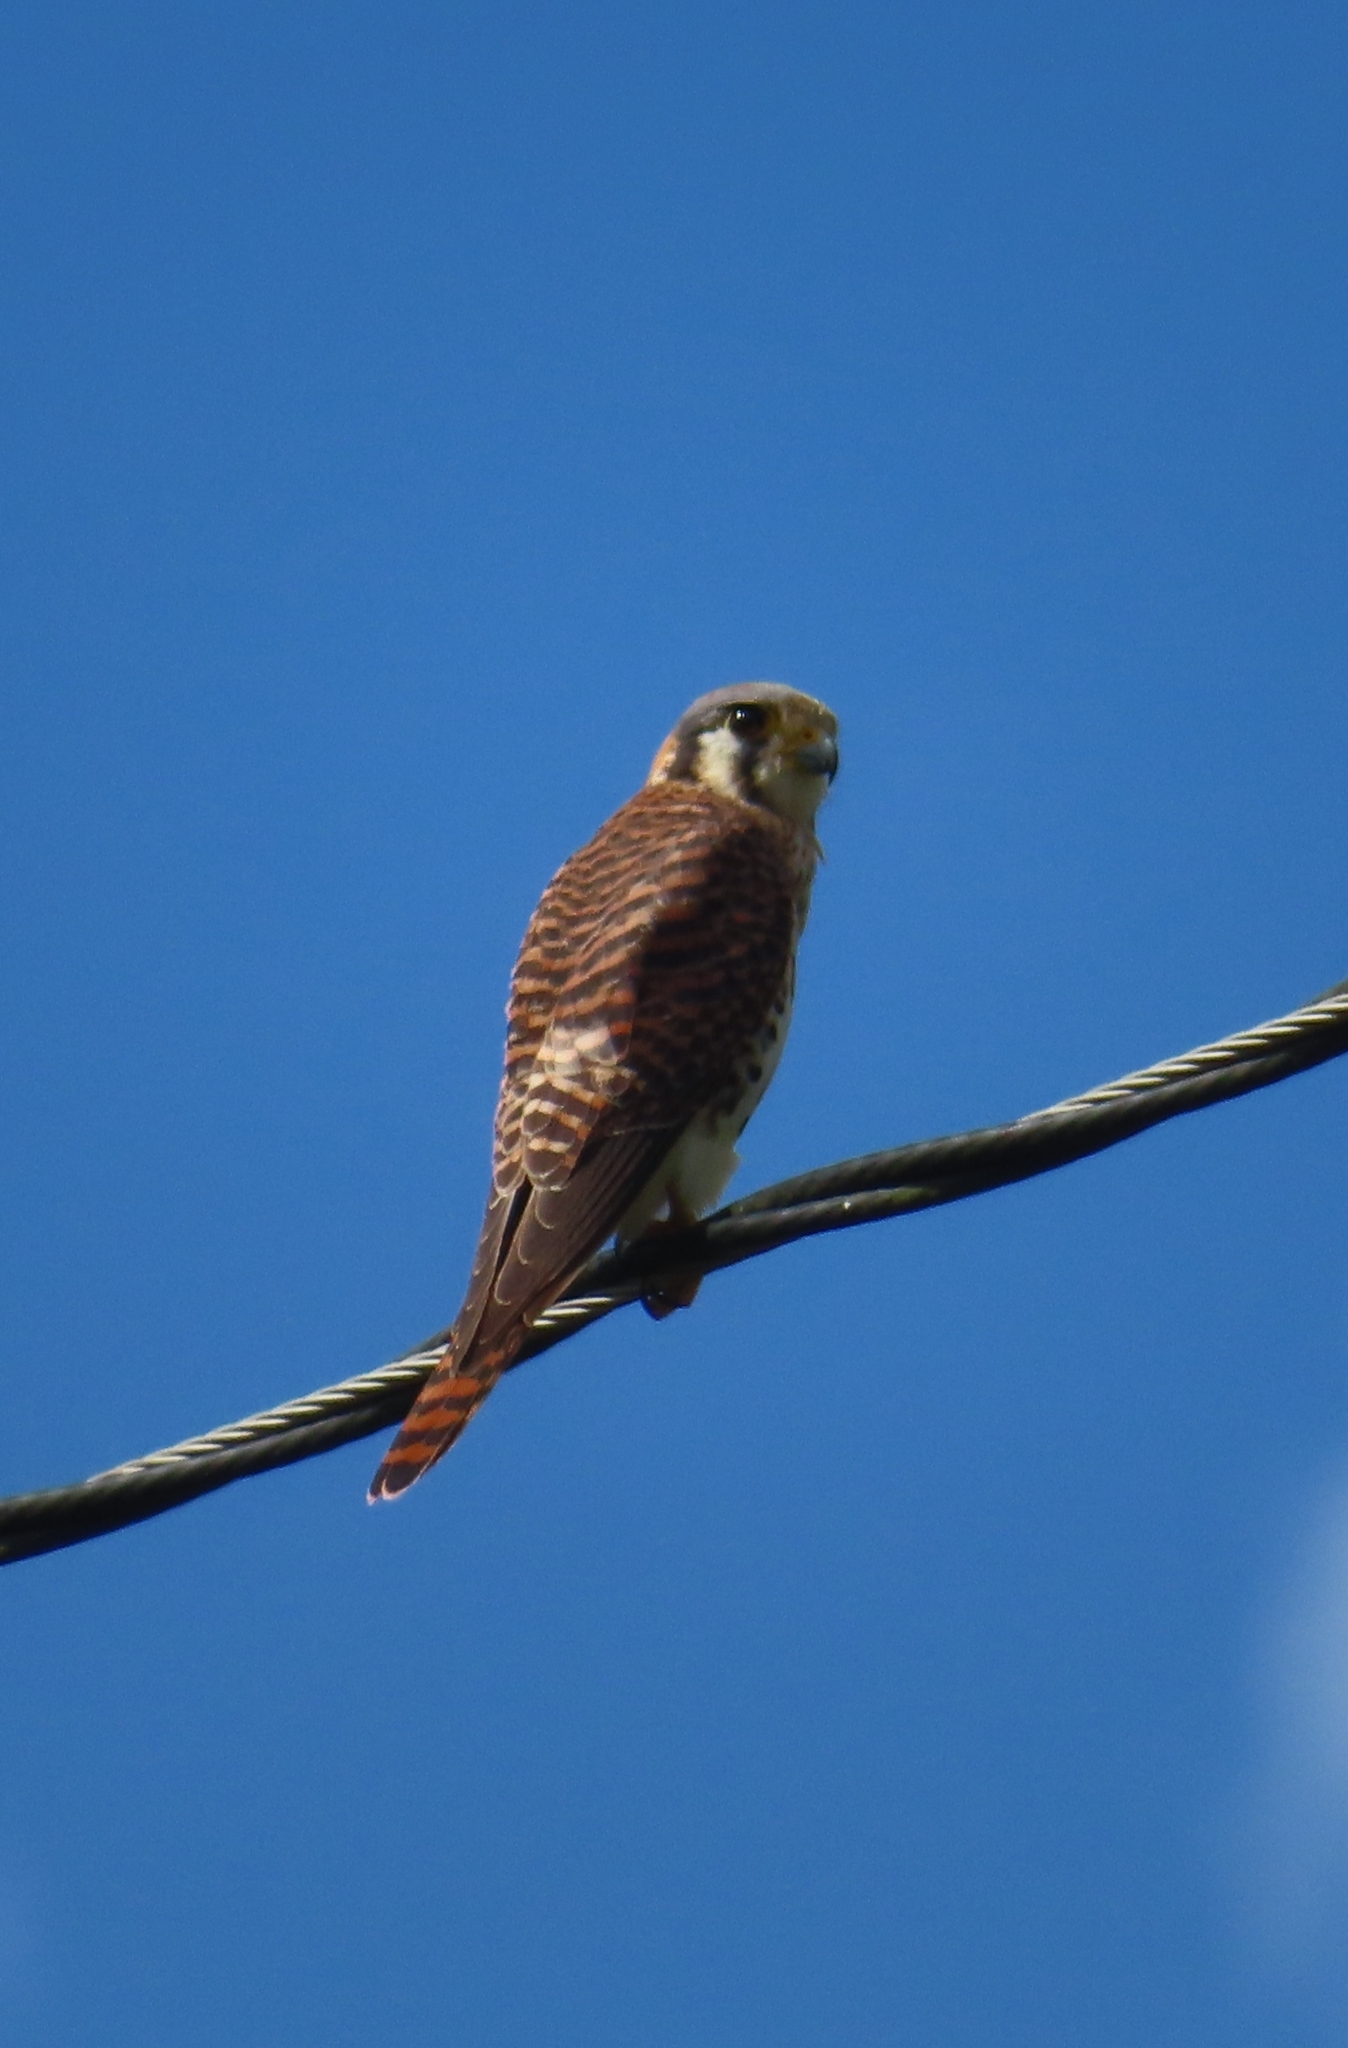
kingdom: Animalia
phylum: Chordata
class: Aves
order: Falconiformes
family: Falconidae
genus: Falco
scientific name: Falco sparverius
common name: American kestrel
